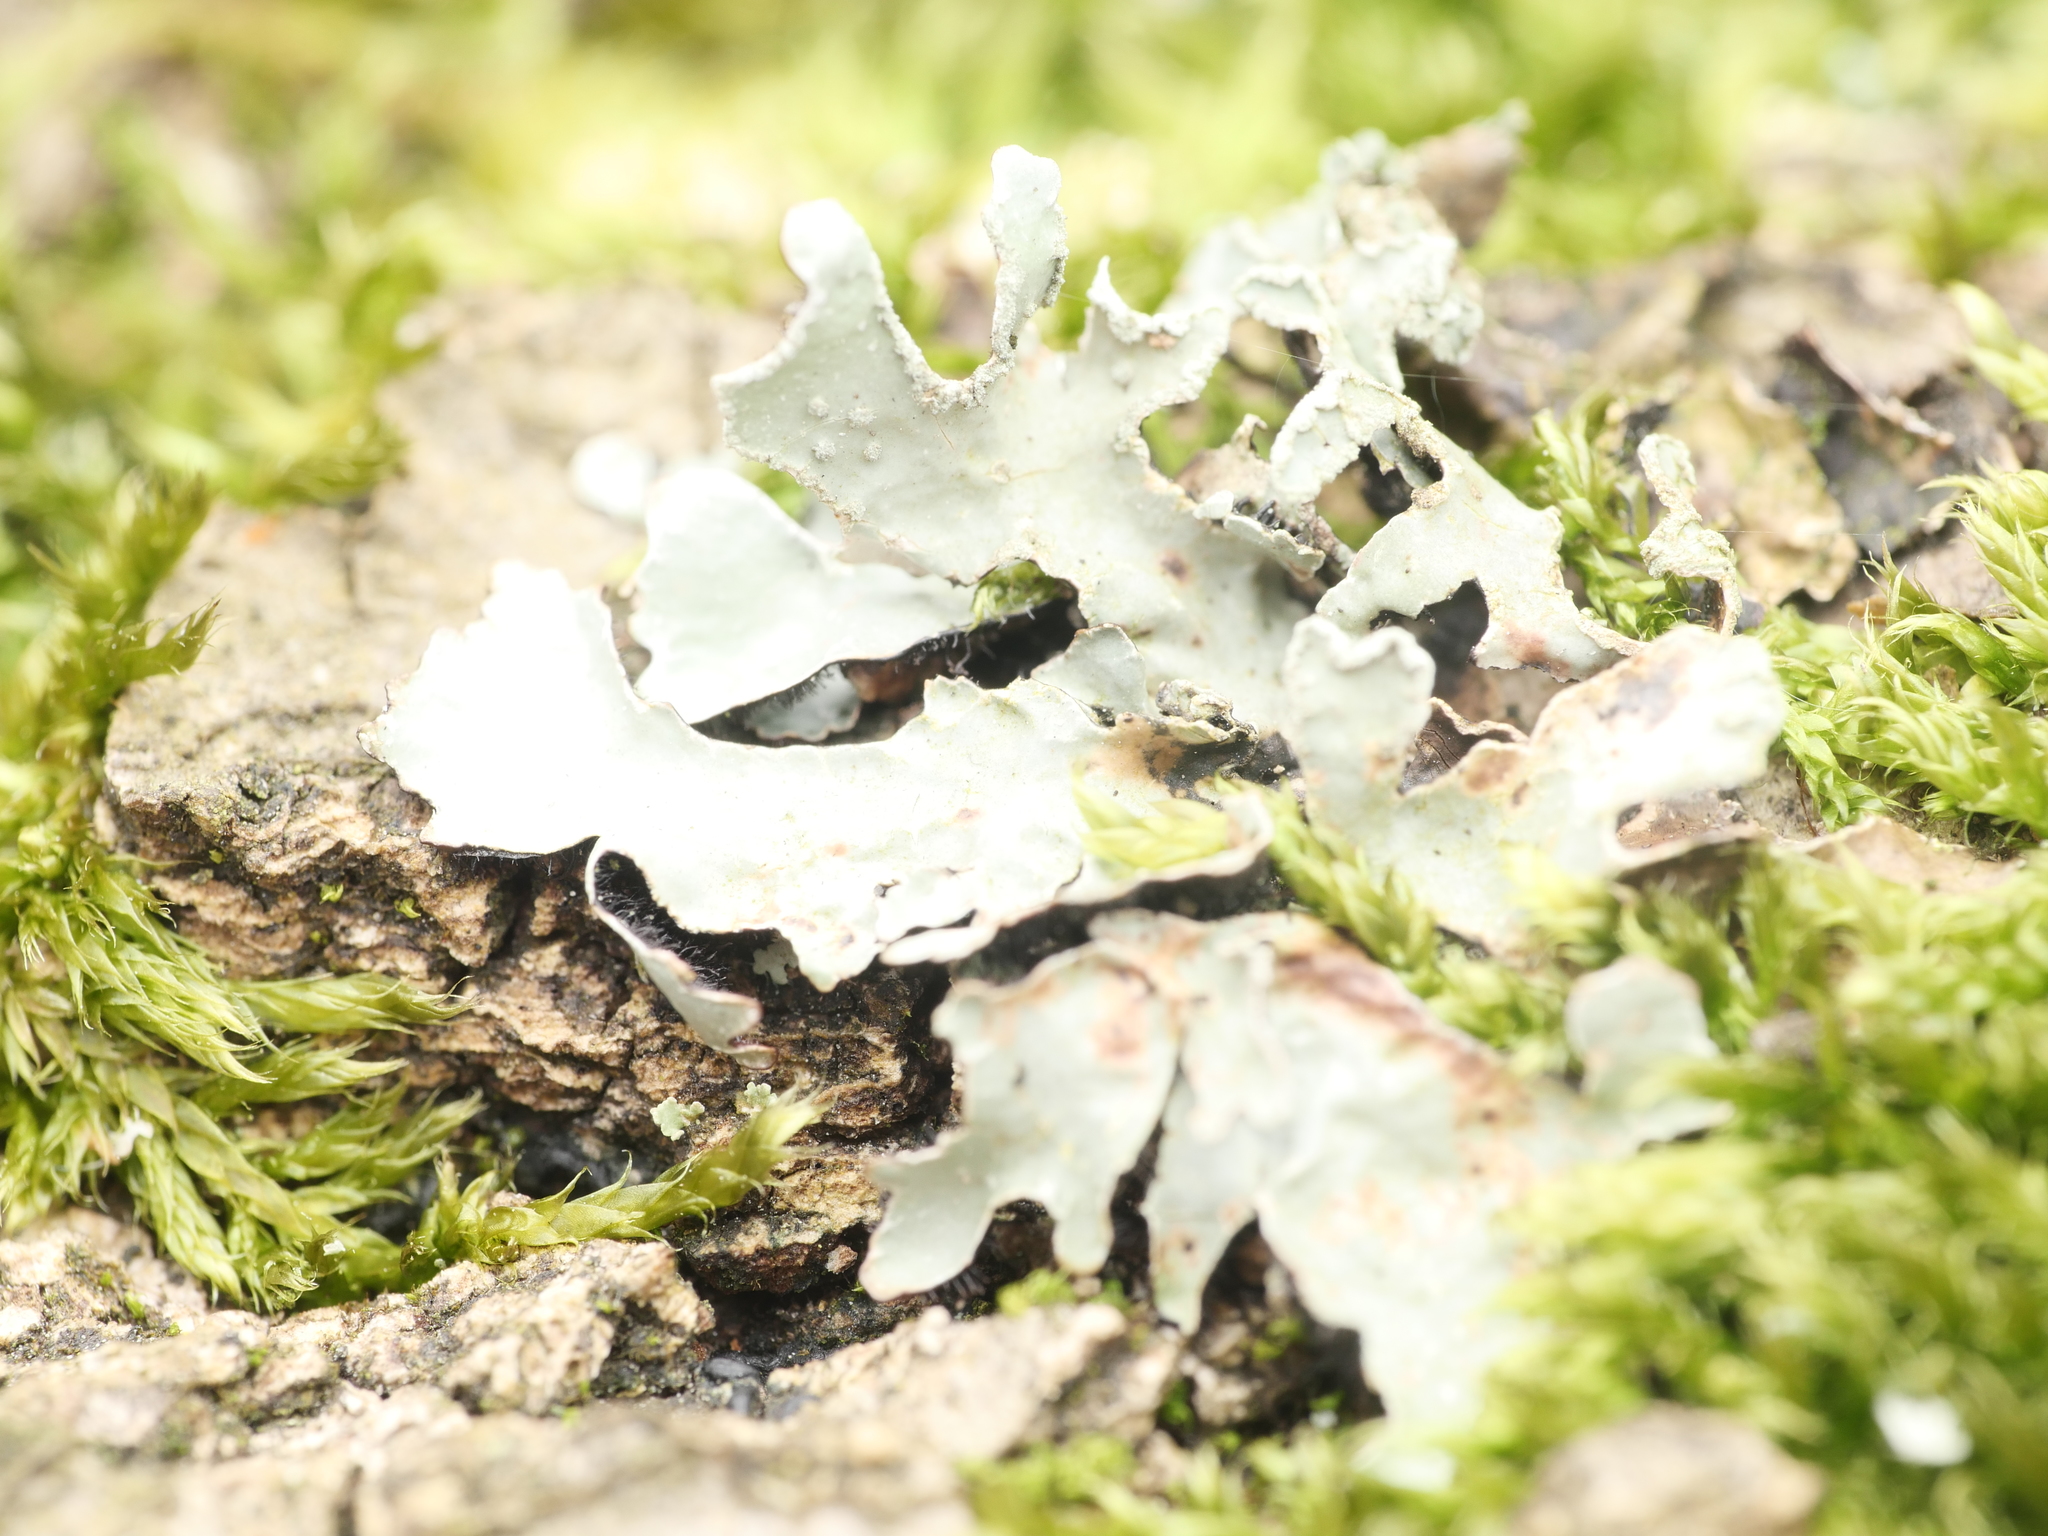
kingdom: Fungi
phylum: Ascomycota
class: Lecanoromycetes
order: Lecanorales
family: Parmeliaceae
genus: Parmelia
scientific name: Parmelia sulcata
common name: Netted shield lichen
